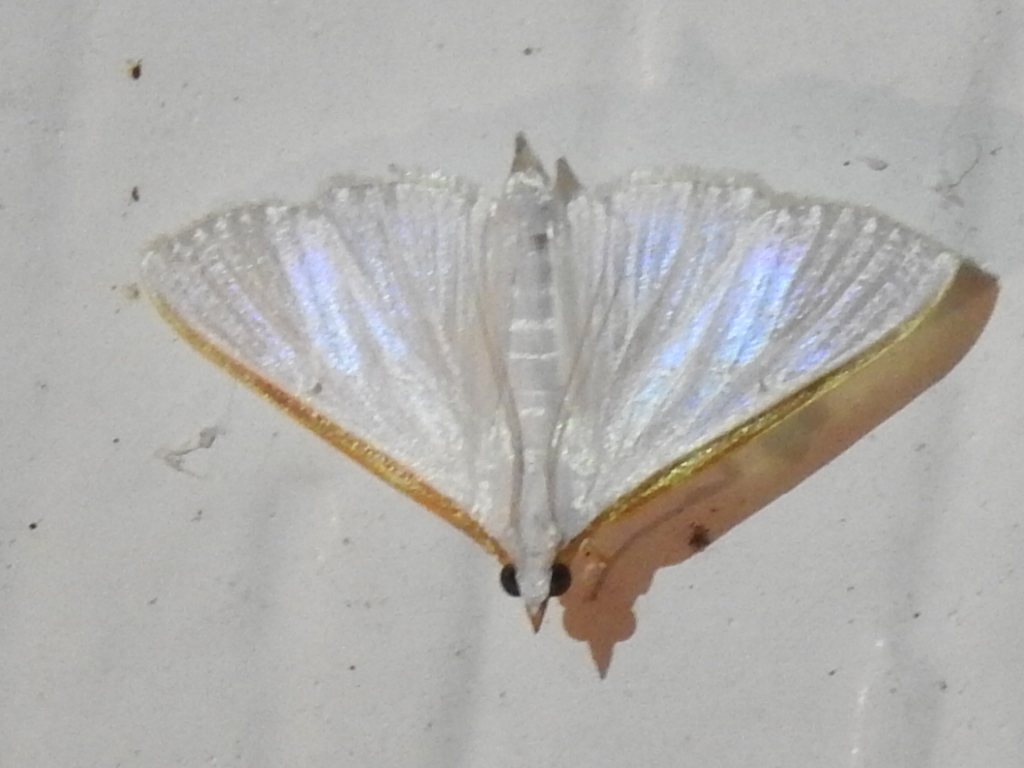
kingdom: Animalia
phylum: Arthropoda
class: Insecta
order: Lepidoptera
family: Crambidae
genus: Diaphania
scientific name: Diaphania costata
